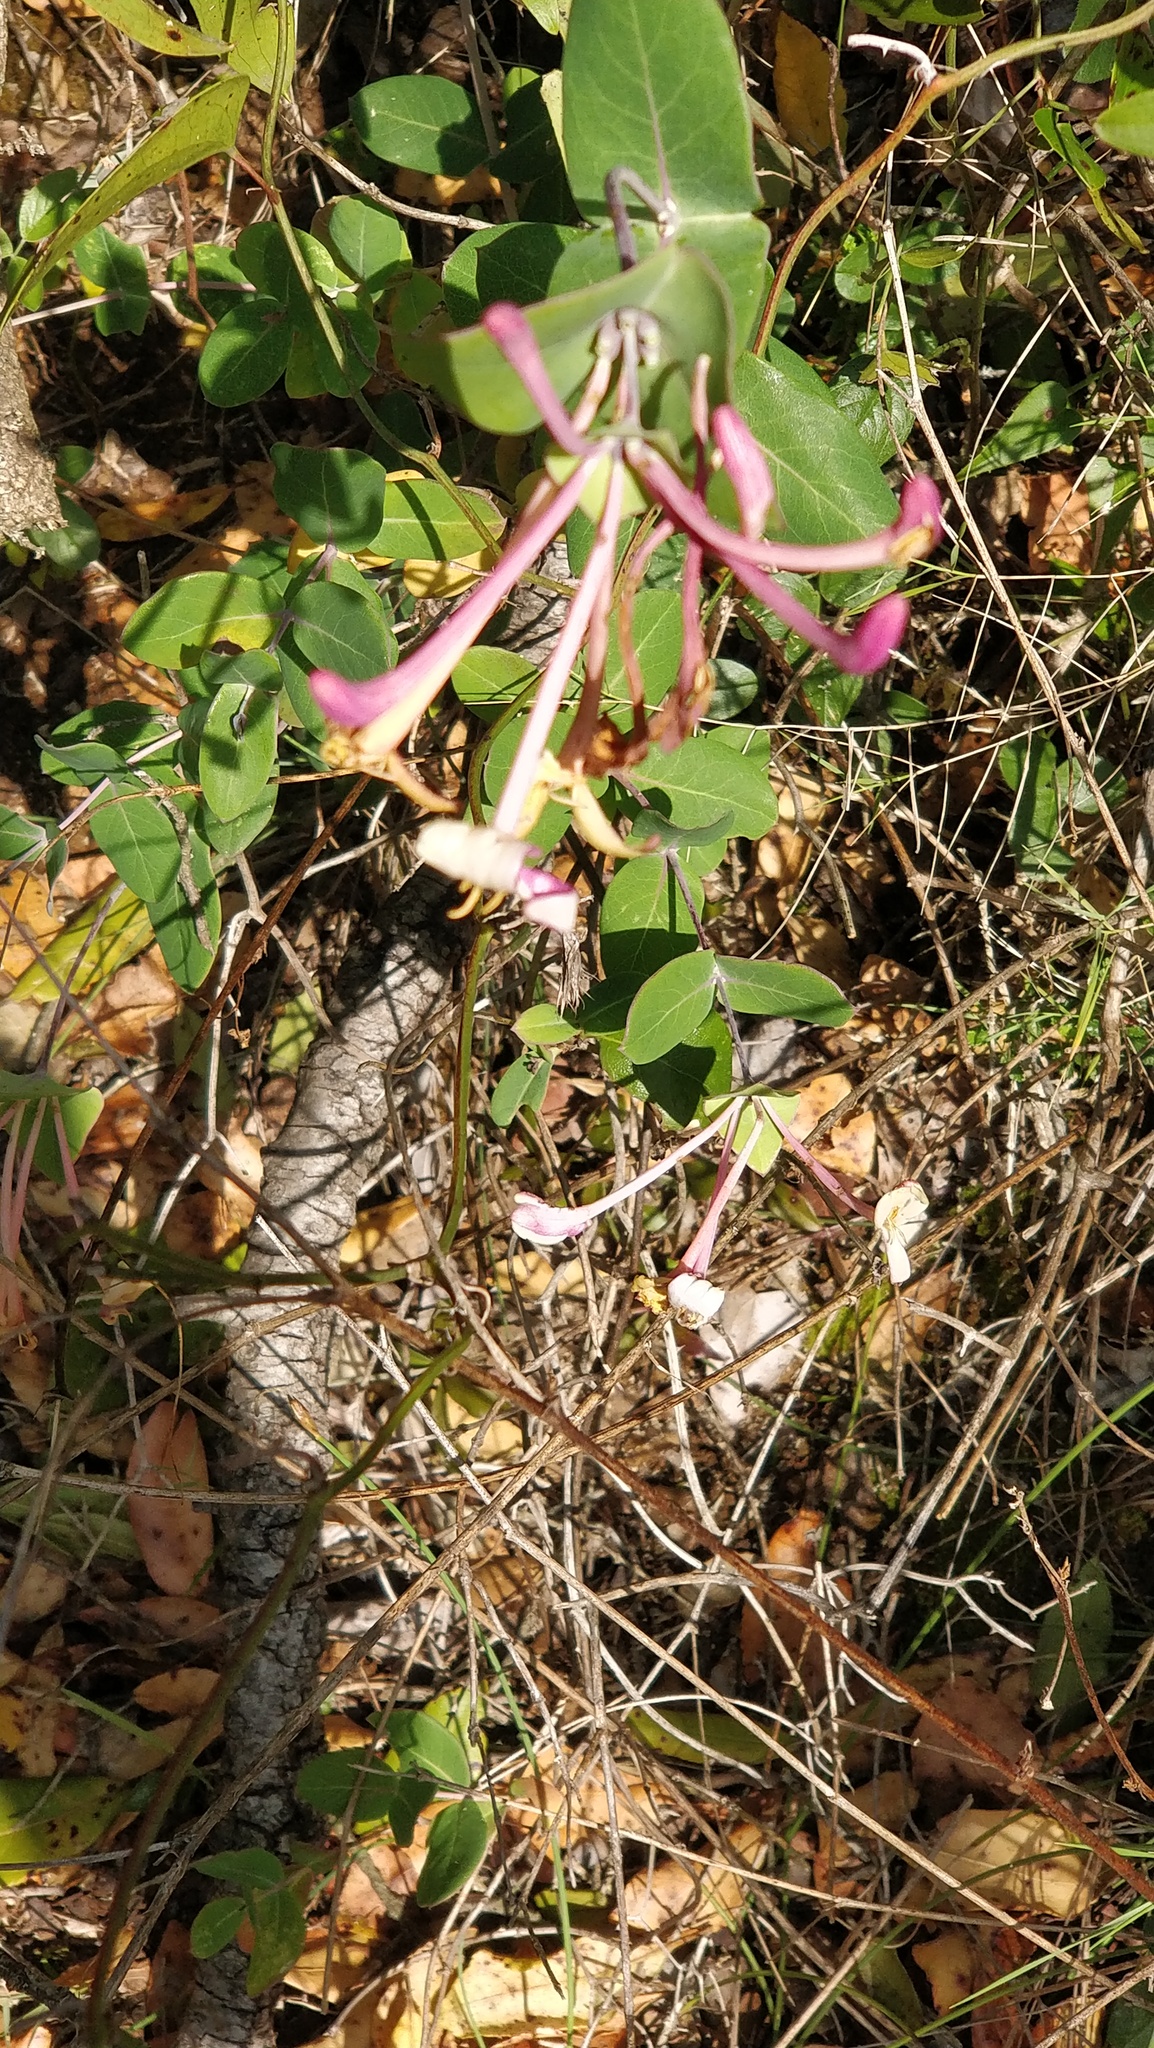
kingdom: Plantae
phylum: Tracheophyta
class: Magnoliopsida
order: Dipsacales
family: Caprifoliaceae
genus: Lonicera
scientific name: Lonicera implexa
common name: Minorca honeysuckle
